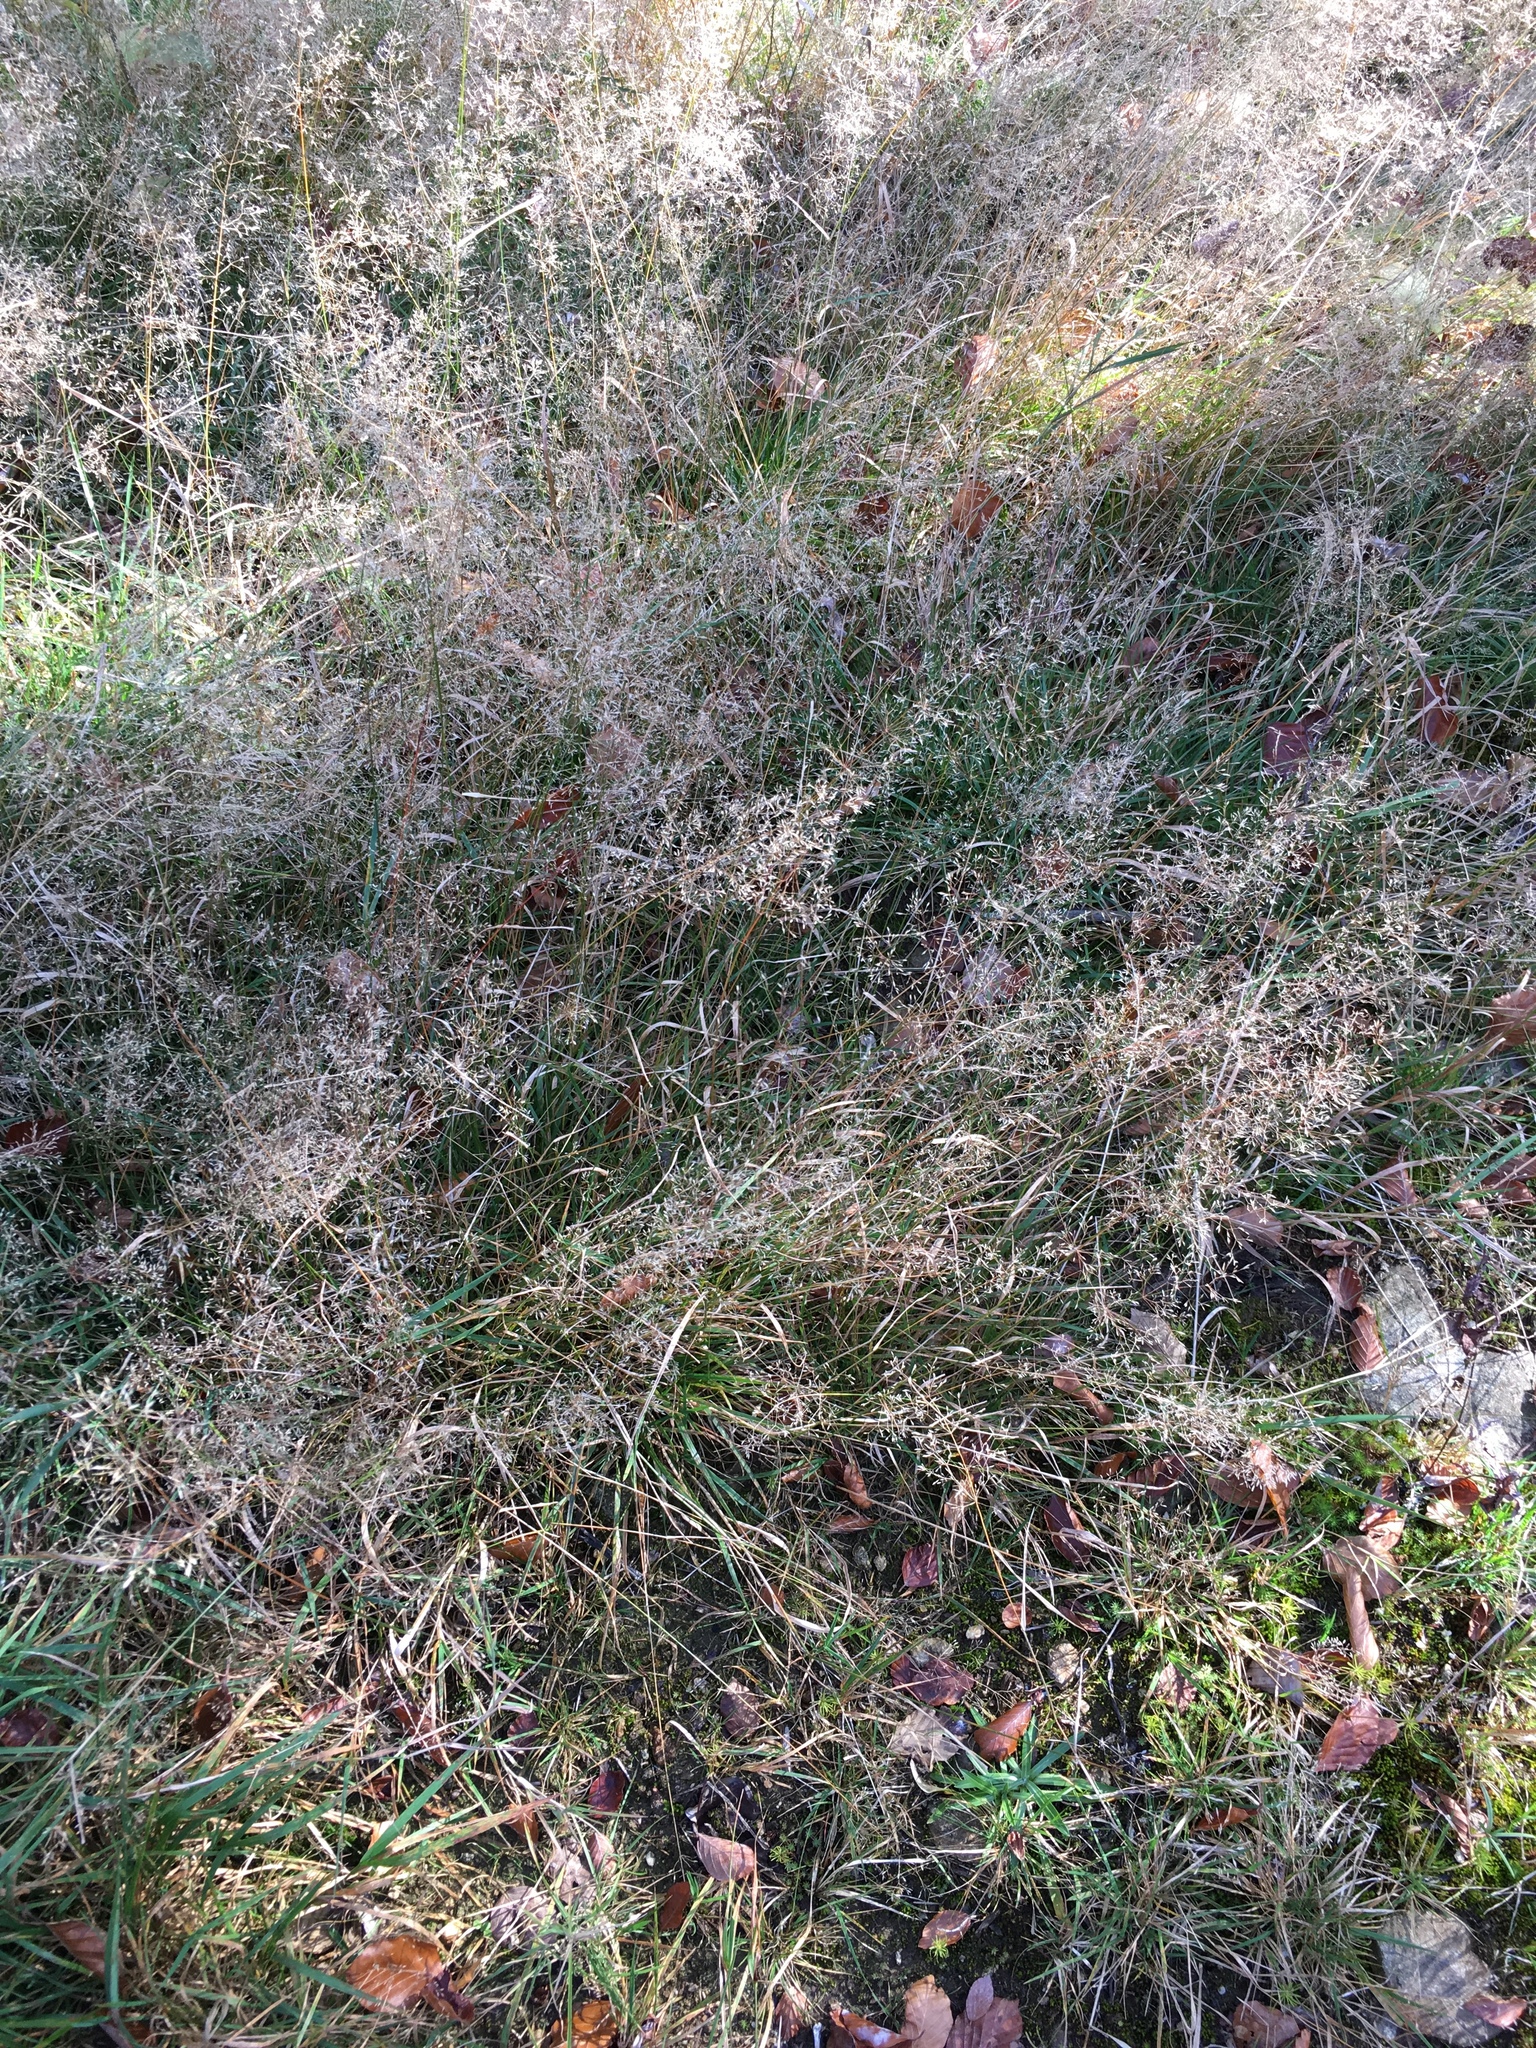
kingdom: Plantae
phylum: Tracheophyta
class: Liliopsida
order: Poales
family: Poaceae
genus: Agrostis
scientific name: Agrostis capillaris
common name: Colonial bentgrass
